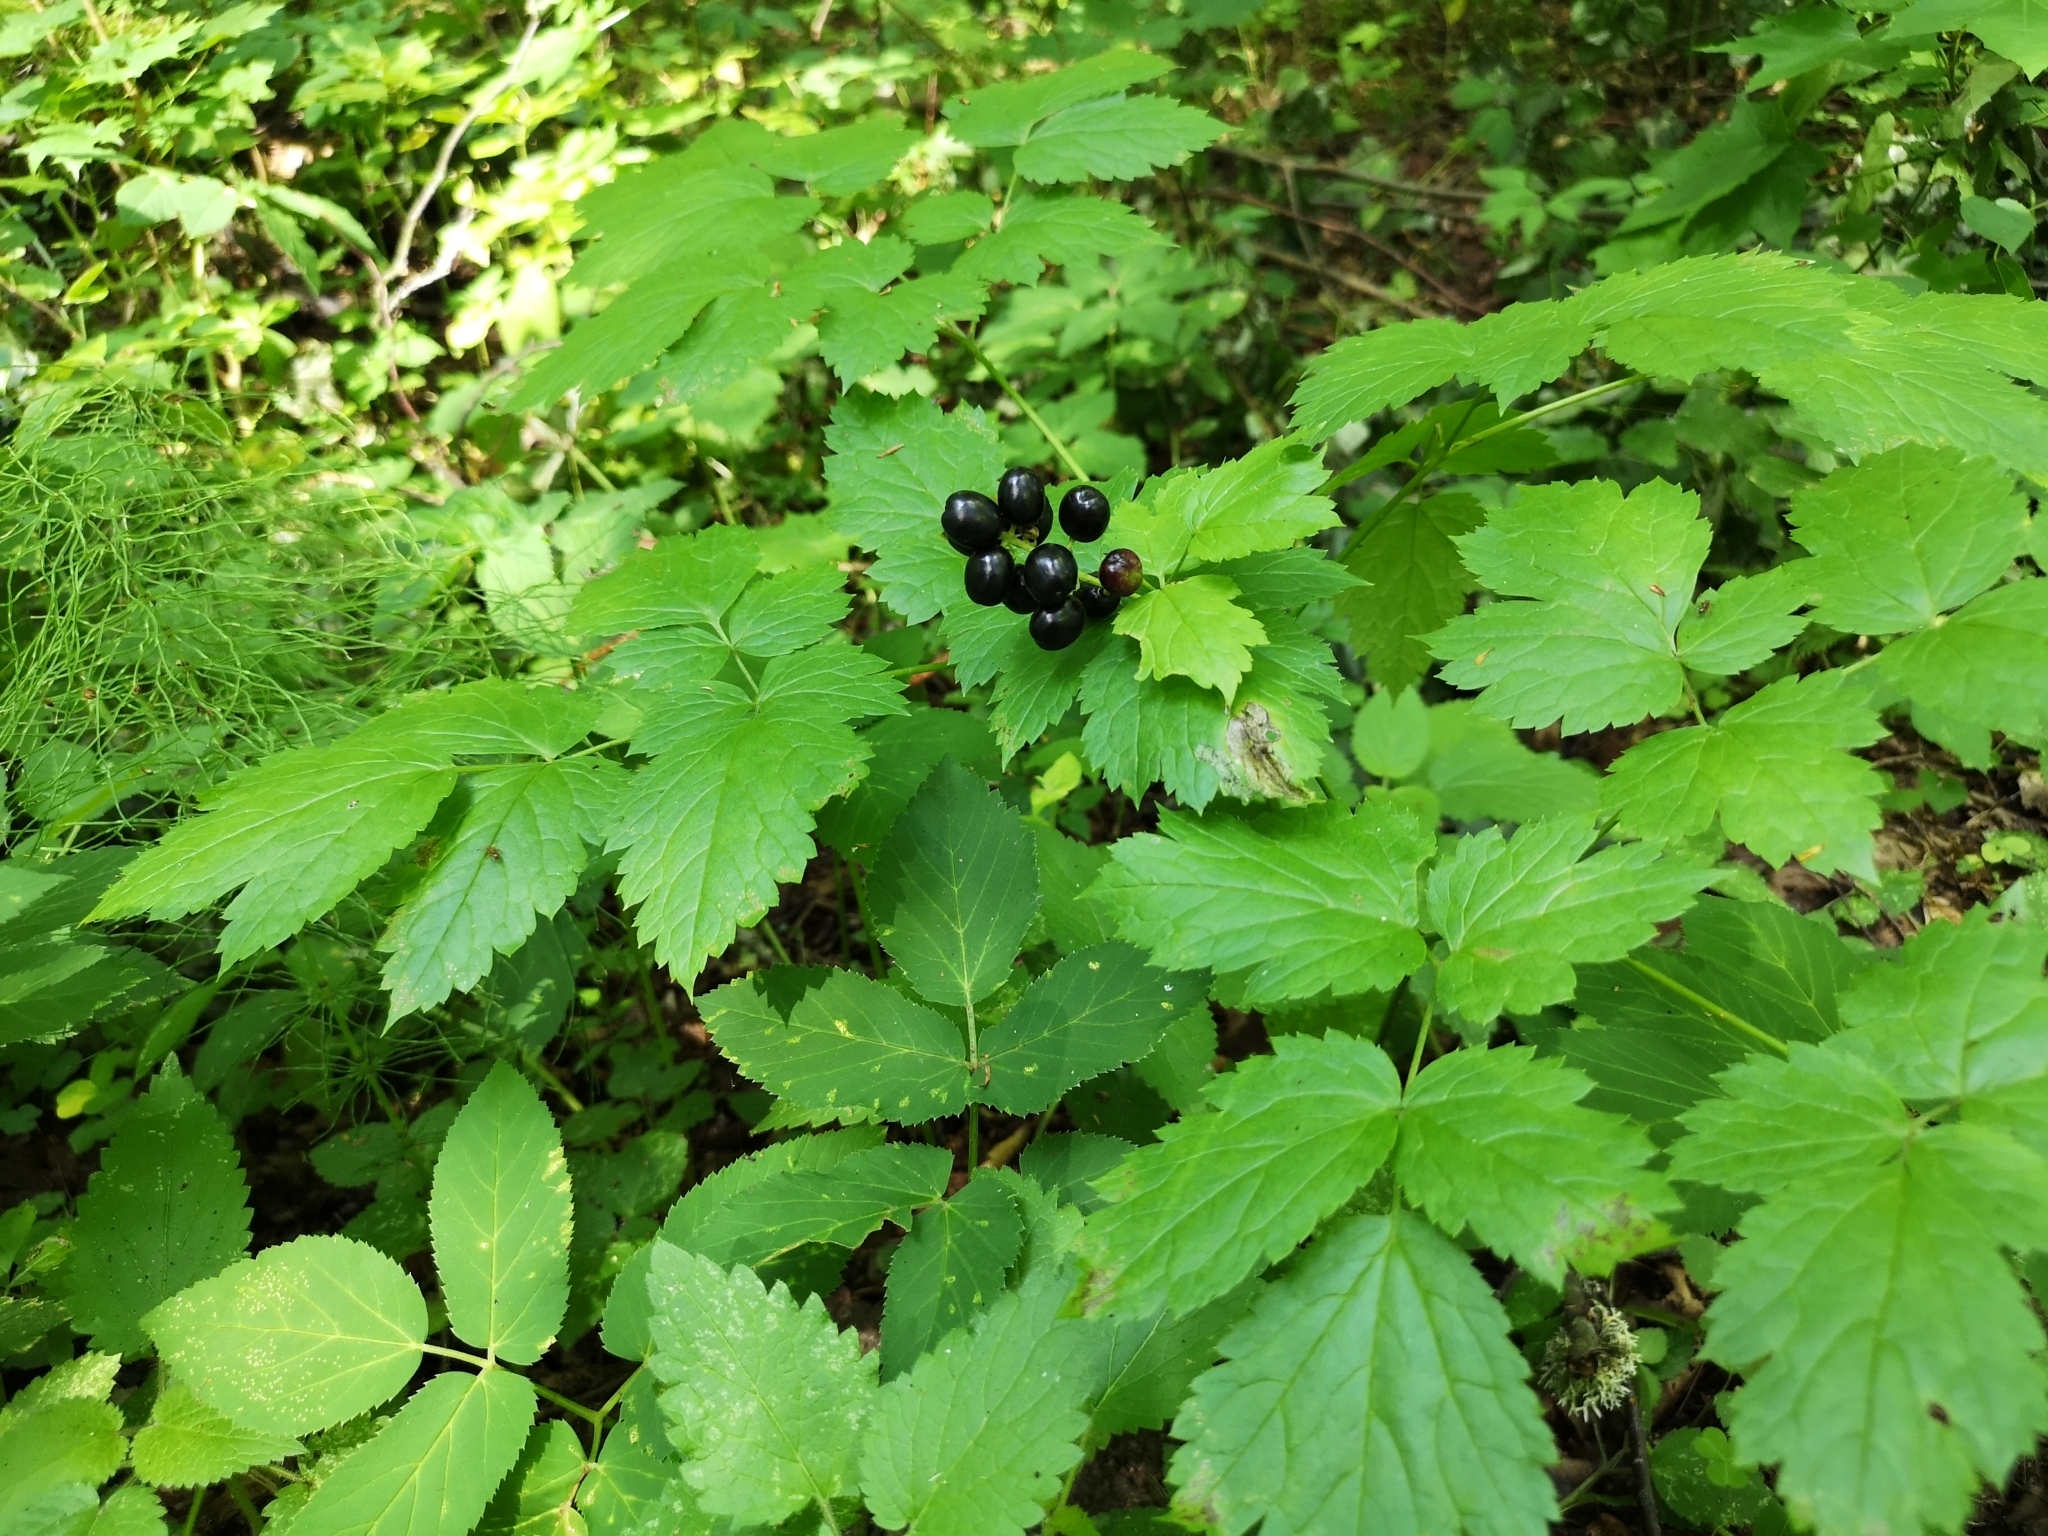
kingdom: Plantae
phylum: Tracheophyta
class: Magnoliopsida
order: Ranunculales
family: Ranunculaceae
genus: Actaea
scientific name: Actaea spicata
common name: Baneberry
